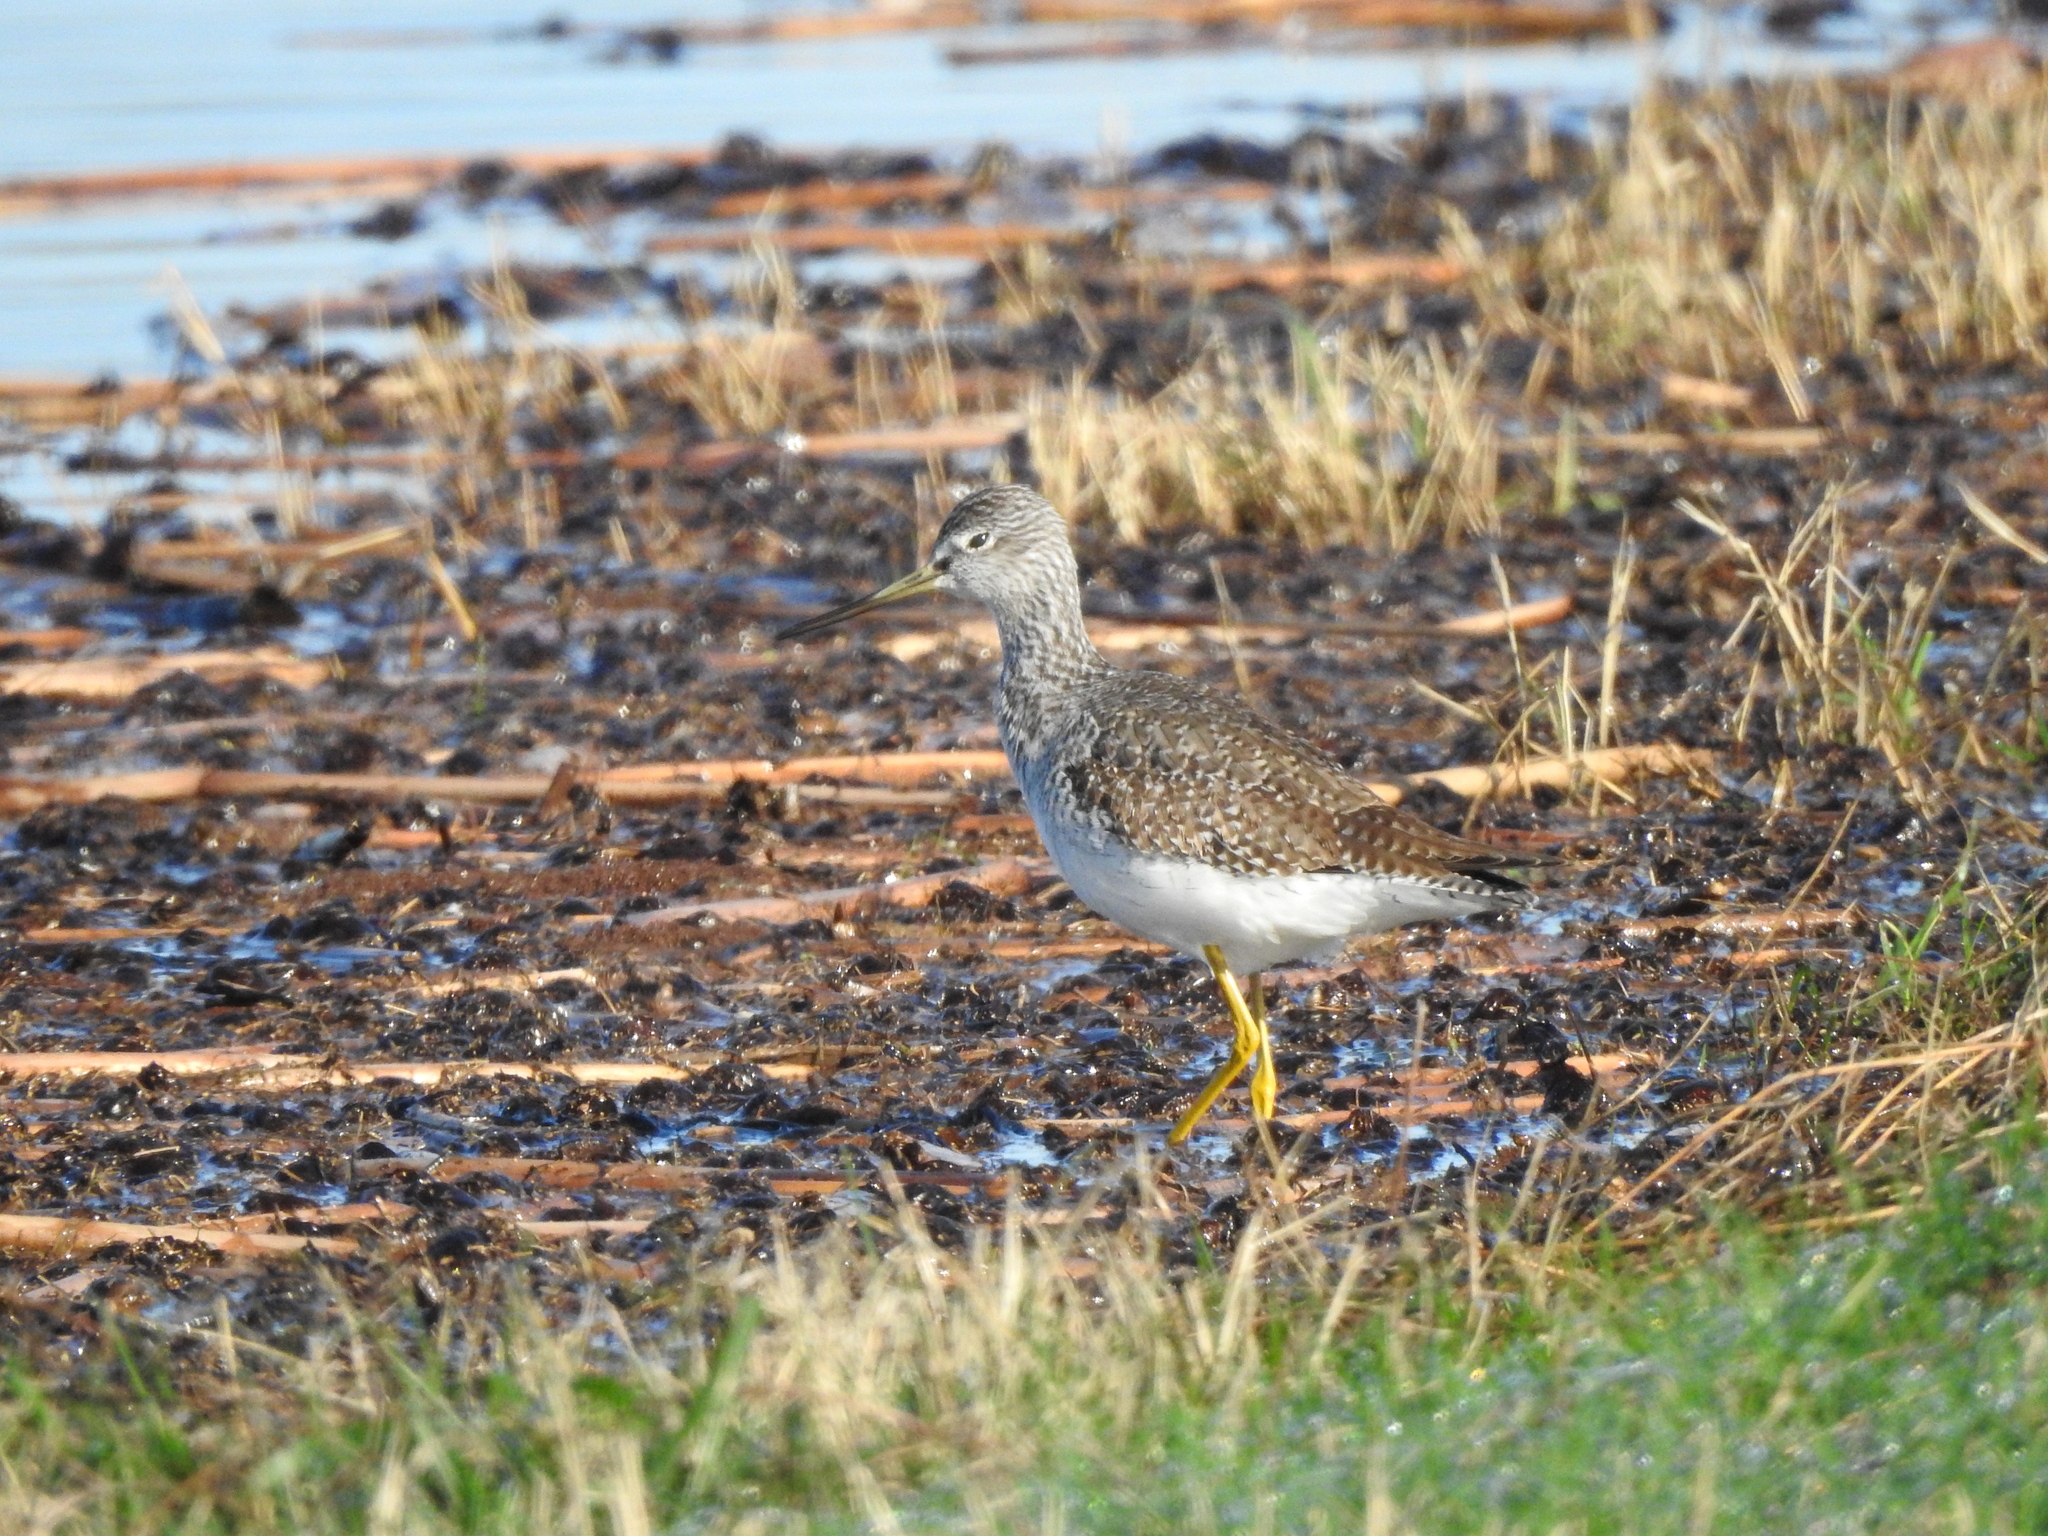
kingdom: Animalia
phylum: Chordata
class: Aves
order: Charadriiformes
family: Scolopacidae
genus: Tringa
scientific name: Tringa melanoleuca
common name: Greater yellowlegs
